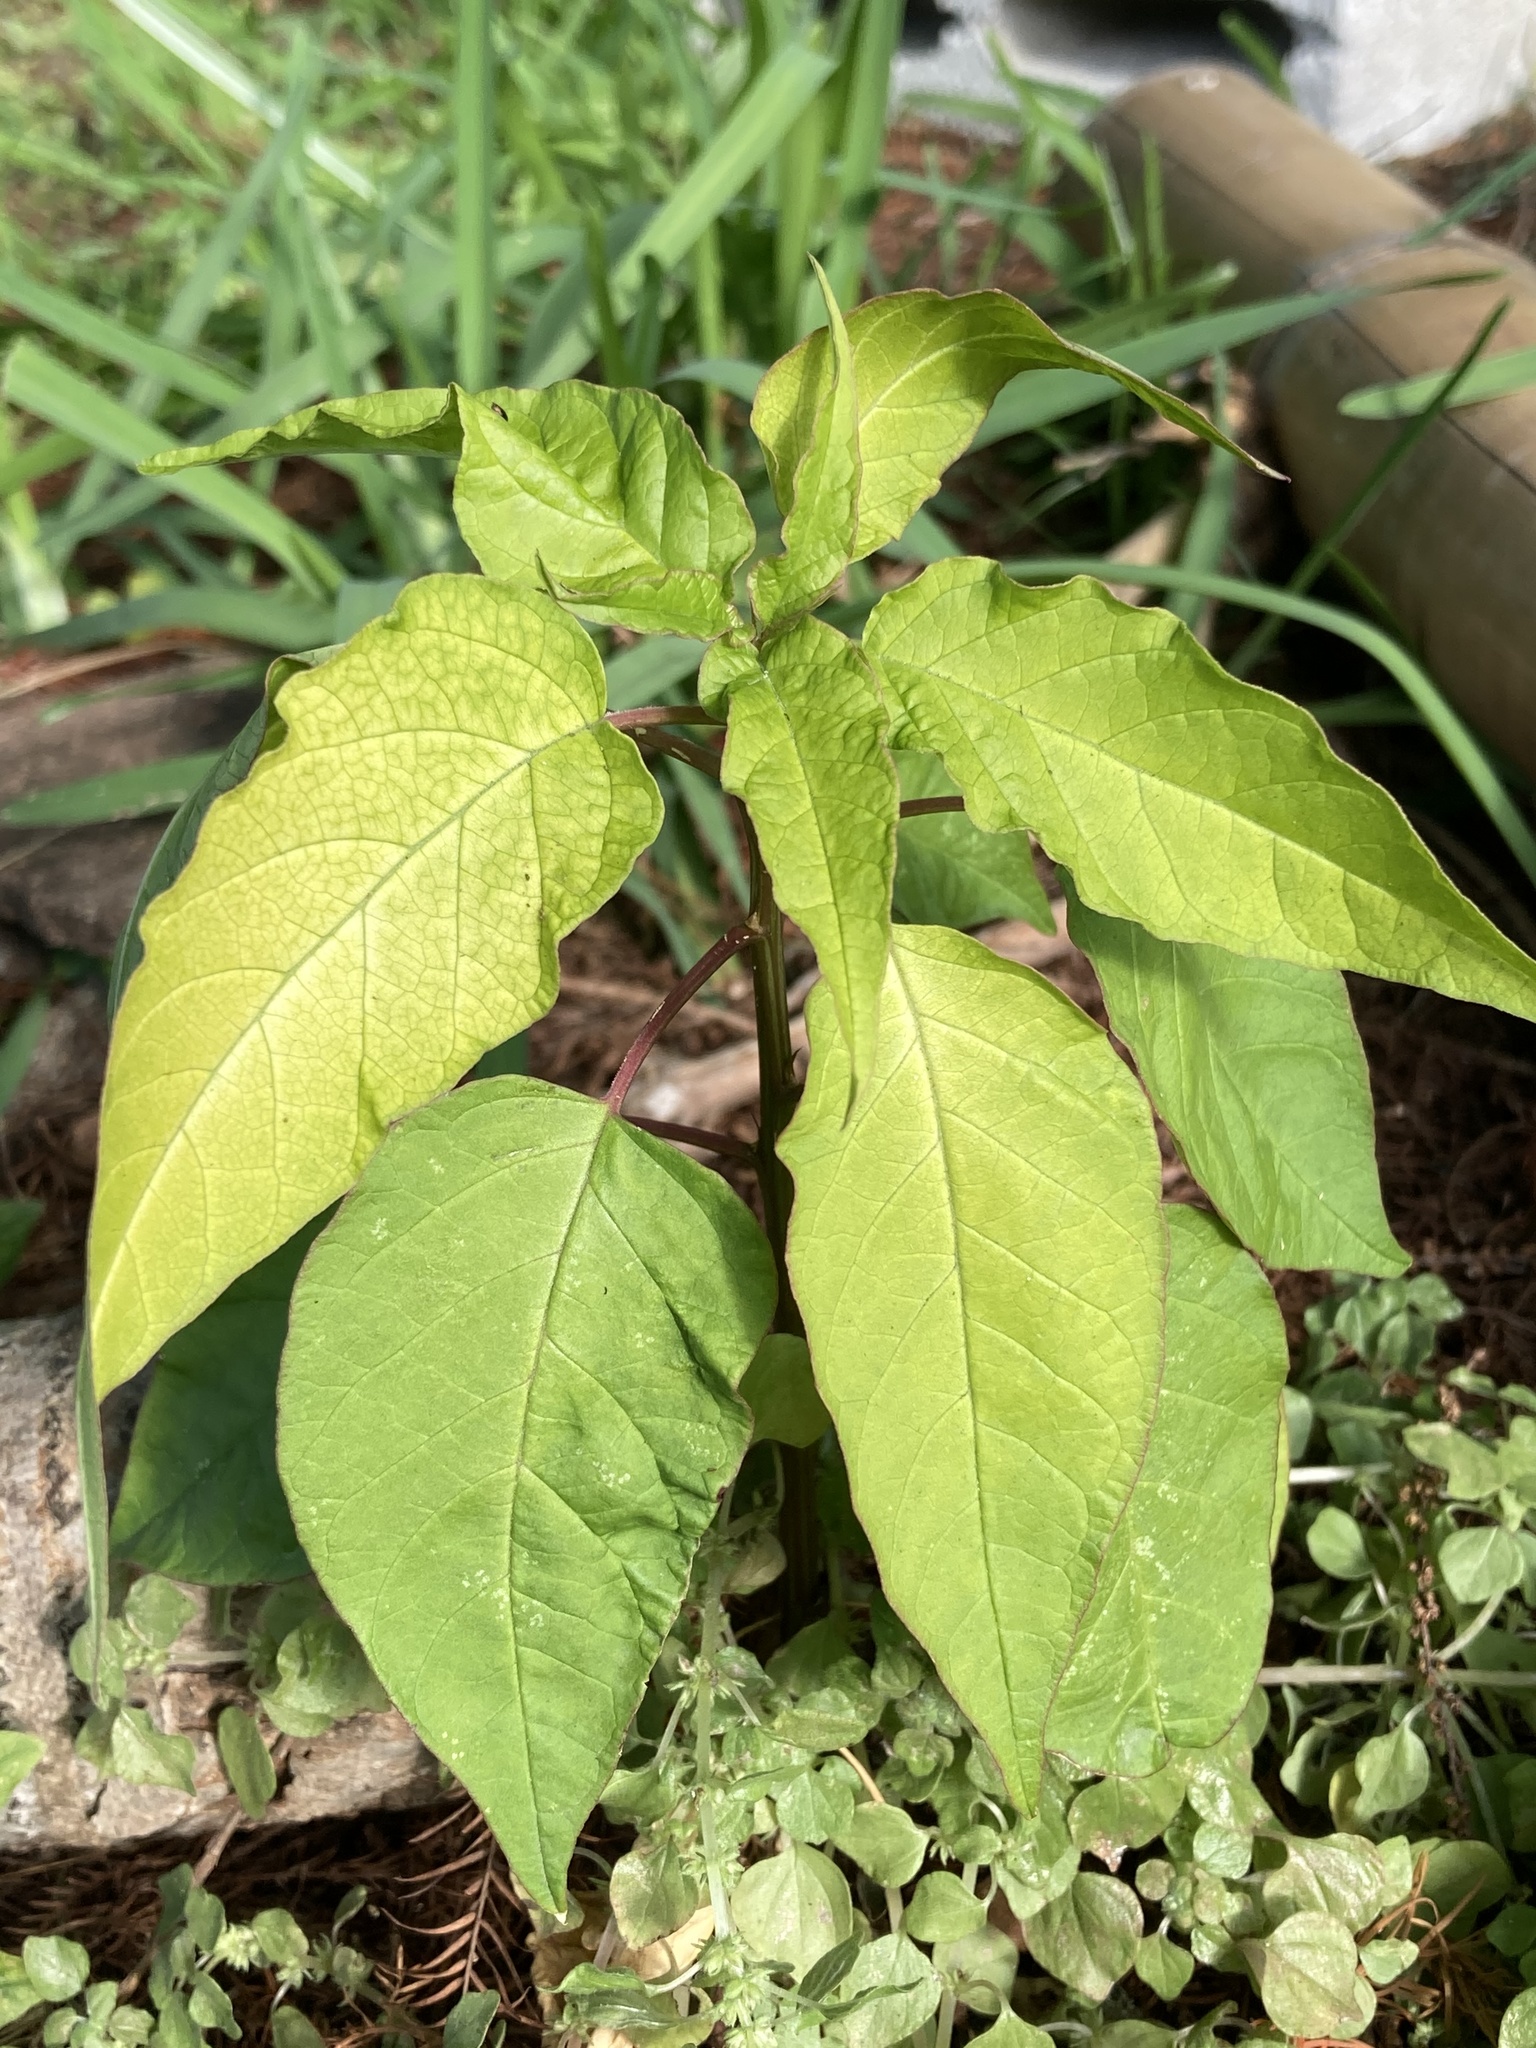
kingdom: Plantae
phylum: Tracheophyta
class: Magnoliopsida
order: Caryophyllales
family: Phytolaccaceae
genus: Rivina
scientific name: Rivina humilis
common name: Rougeplant
